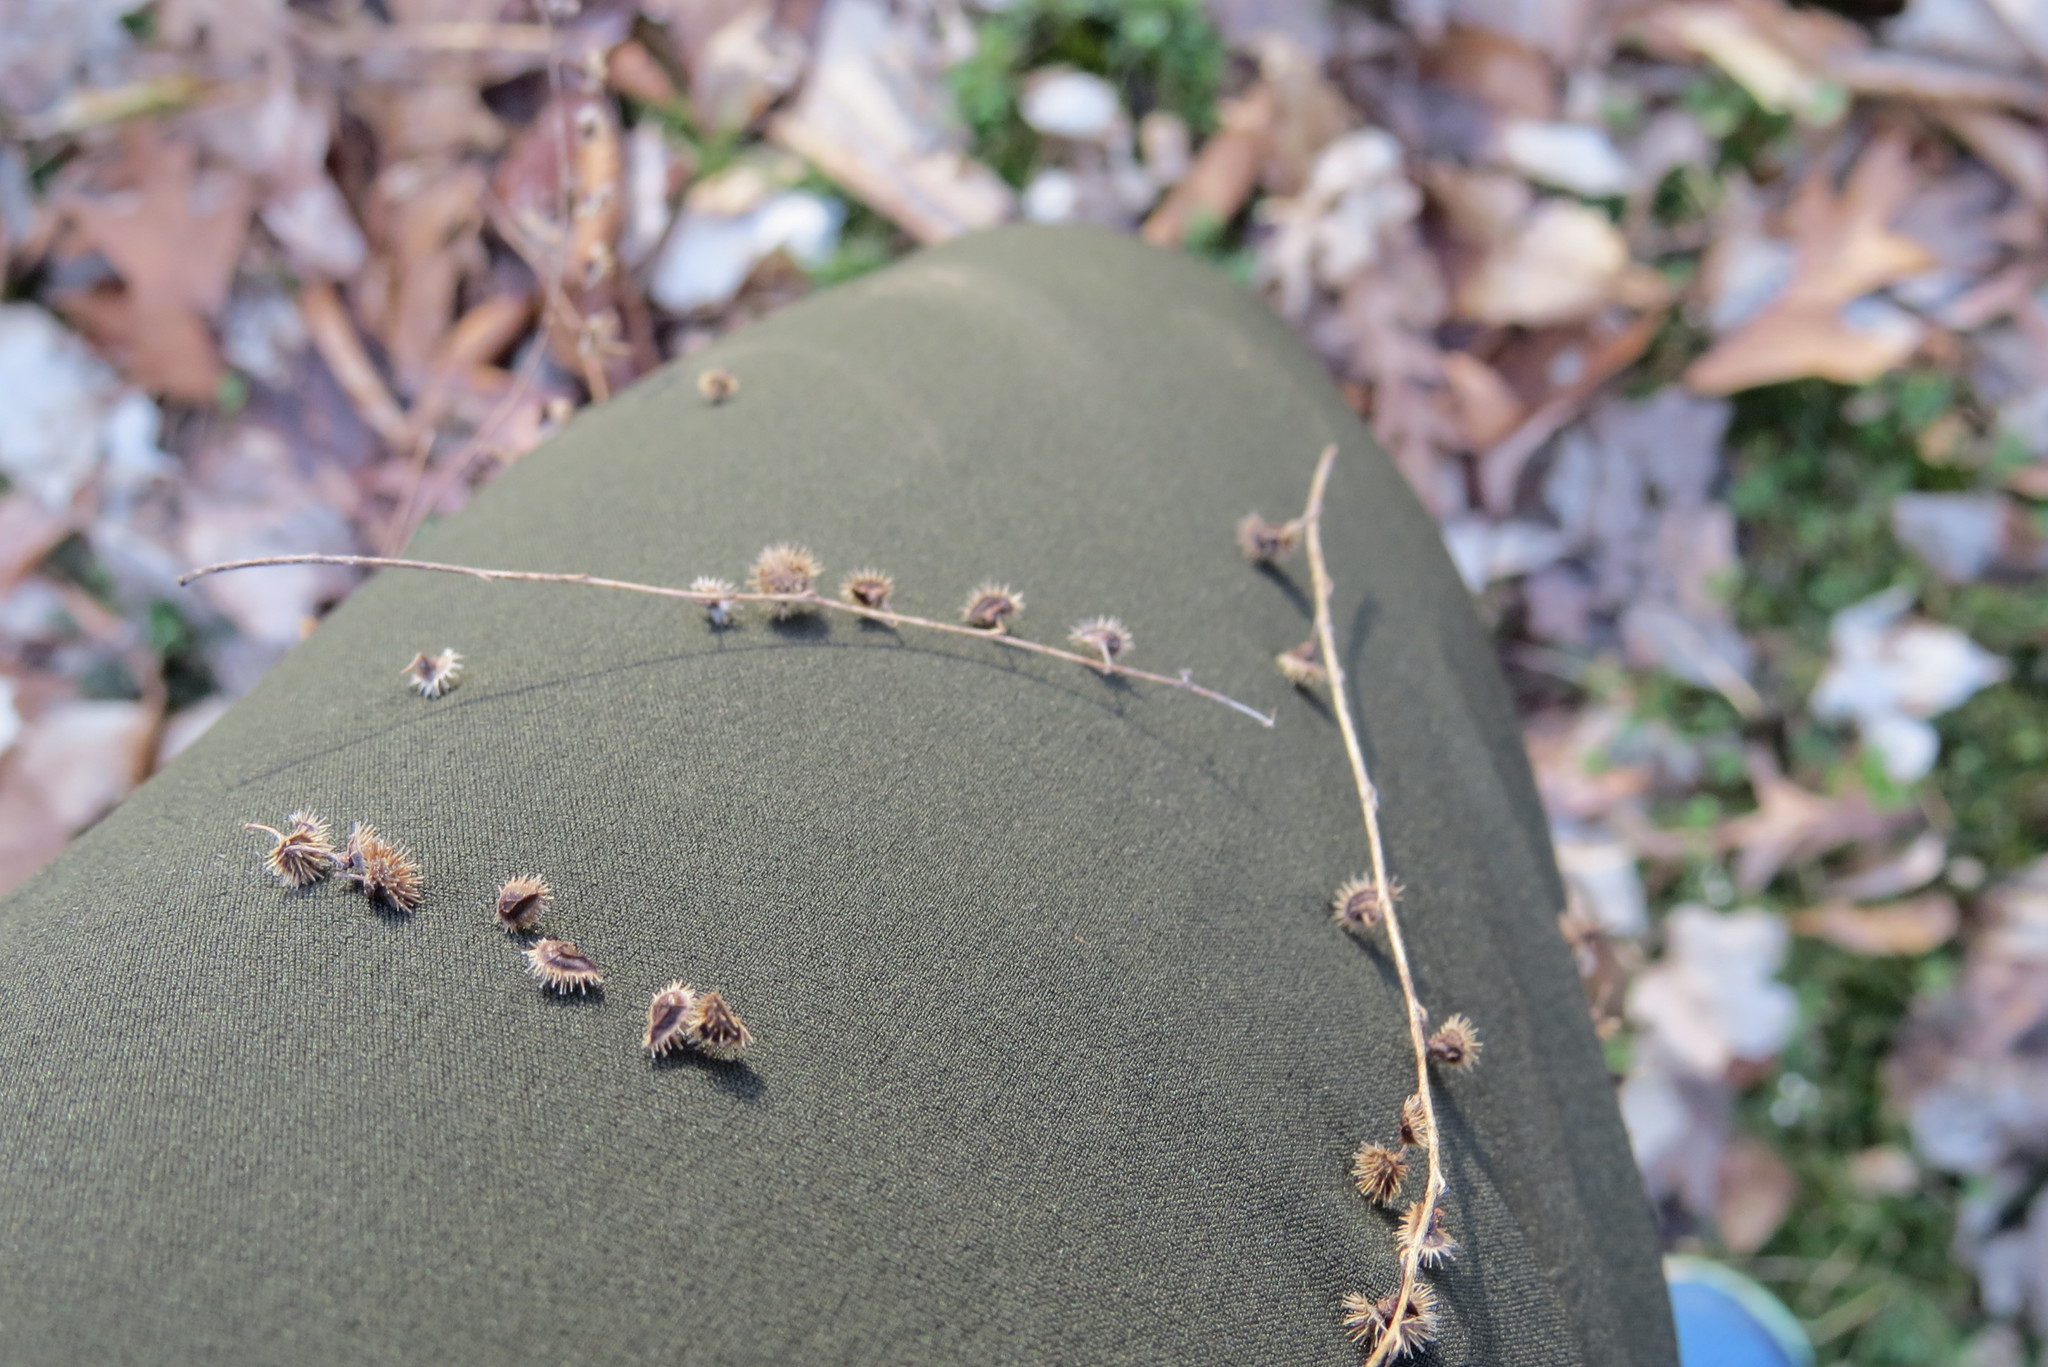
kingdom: Plantae
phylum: Tracheophyta
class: Magnoliopsida
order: Boraginales
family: Boraginaceae
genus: Hackelia
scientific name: Hackelia virginiana
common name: Beggar's-lice
